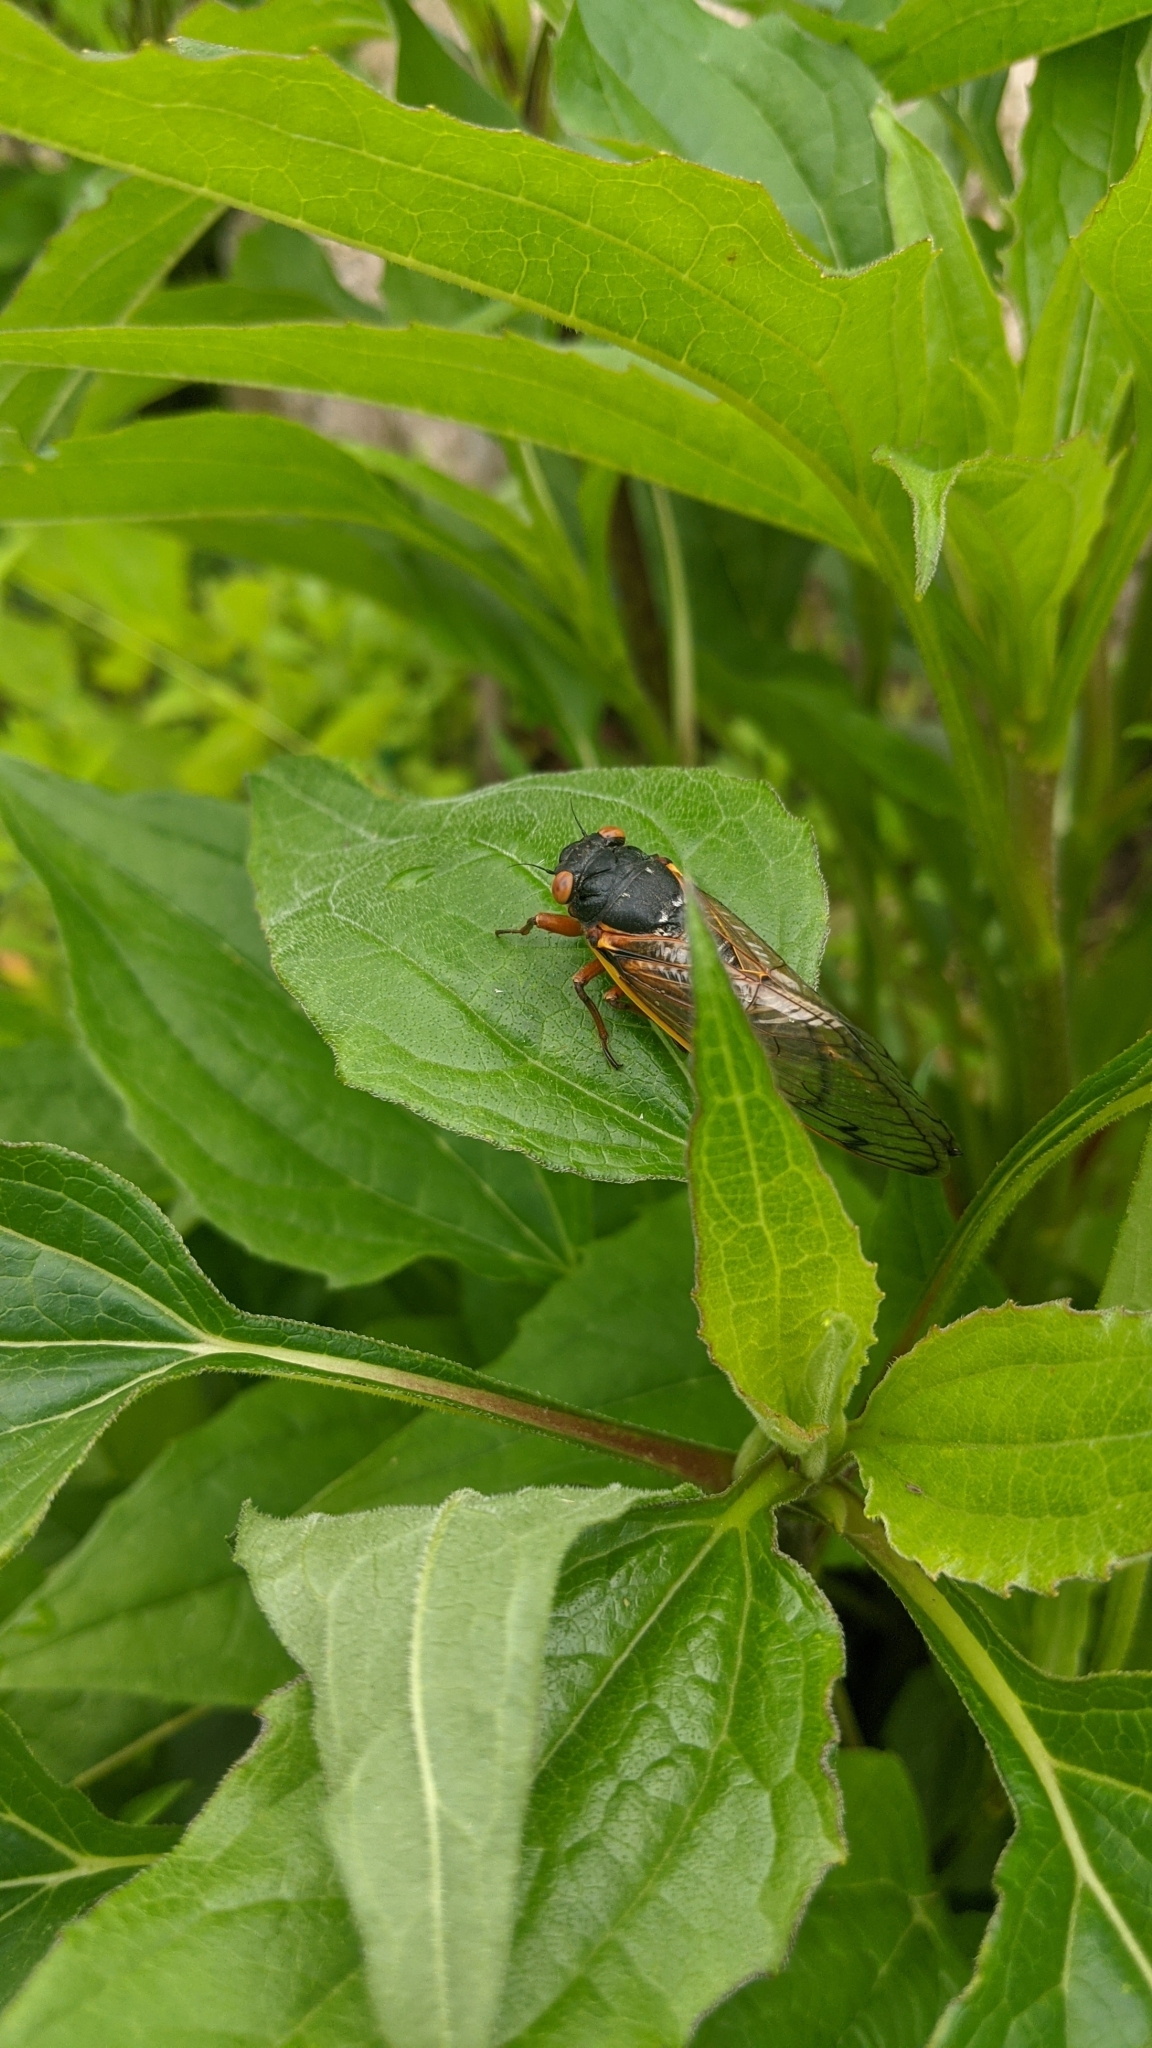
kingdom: Animalia
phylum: Arthropoda
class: Insecta
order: Hemiptera
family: Cicadidae
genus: Magicicada
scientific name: Magicicada
